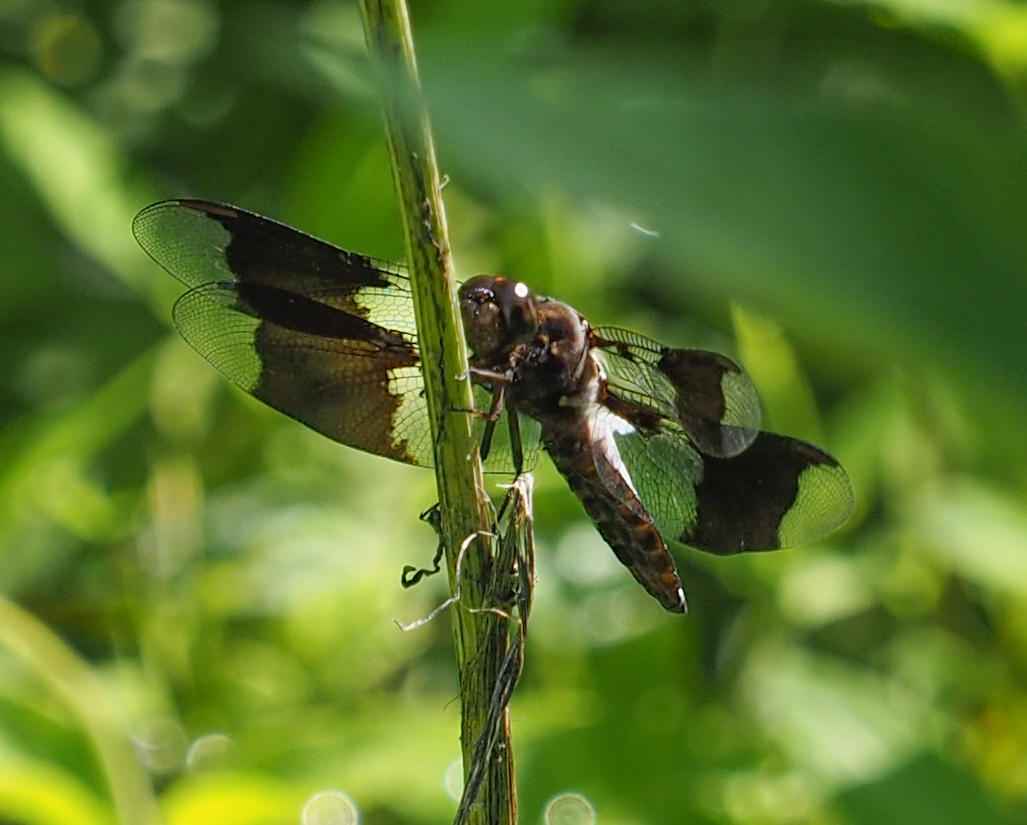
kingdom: Animalia
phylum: Arthropoda
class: Insecta
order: Odonata
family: Libellulidae
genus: Plathemis
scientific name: Plathemis lydia
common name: Common whitetail
